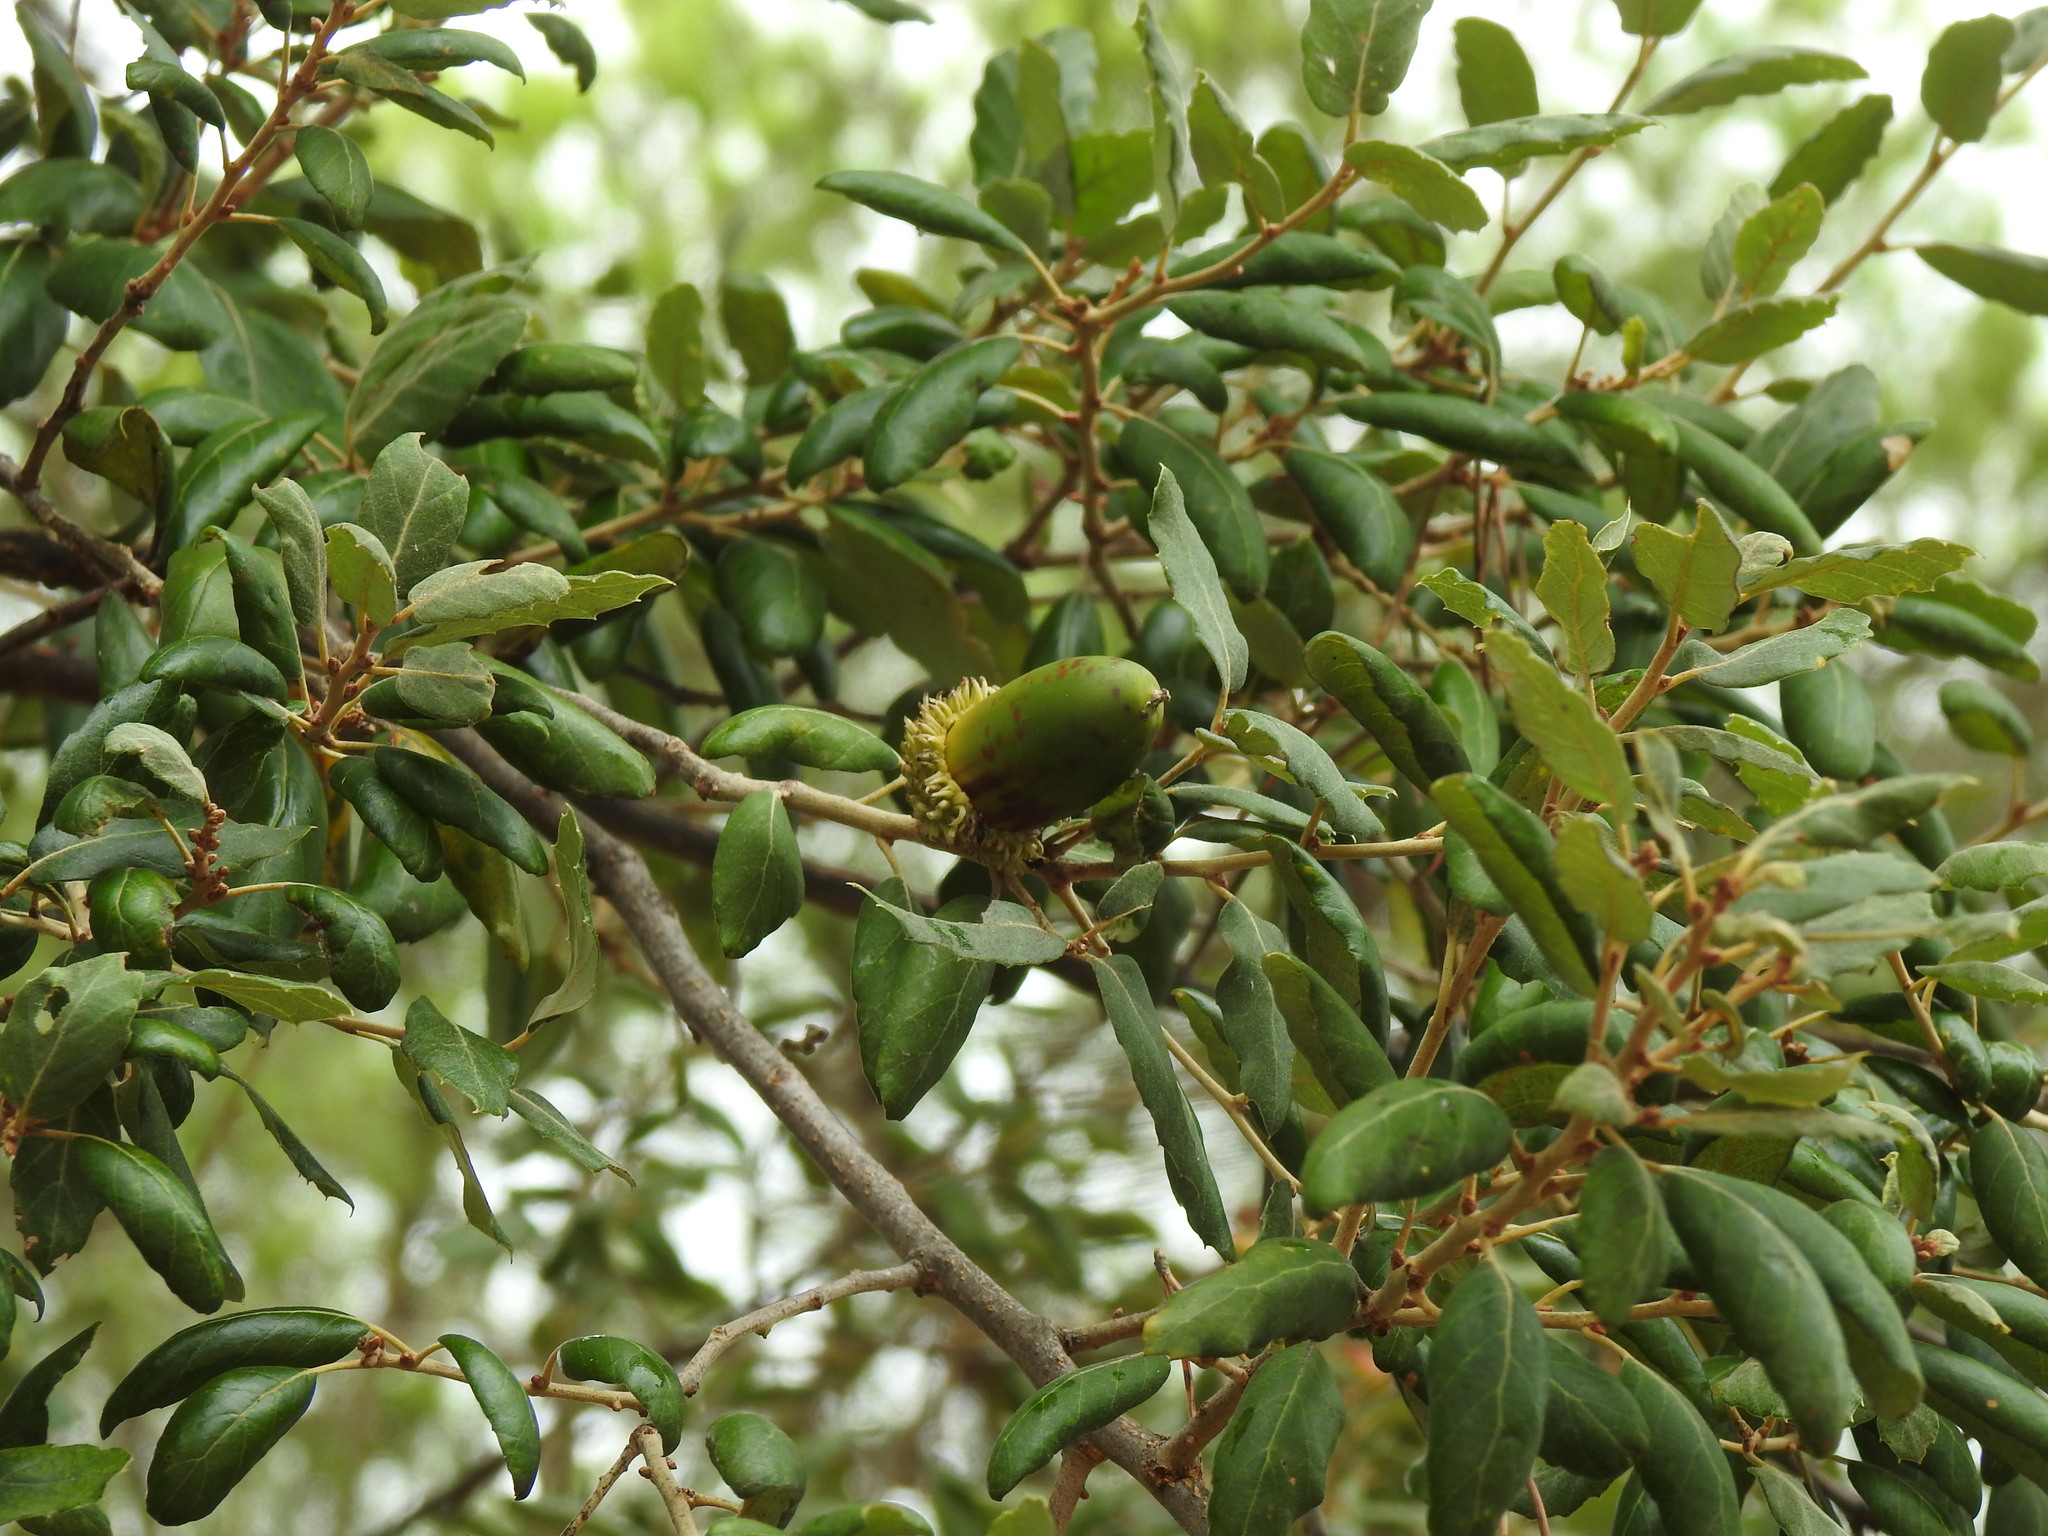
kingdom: Plantae
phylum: Tracheophyta
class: Magnoliopsida
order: Fagales
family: Fagaceae
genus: Quercus
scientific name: Quercus suber
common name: Cork oak
